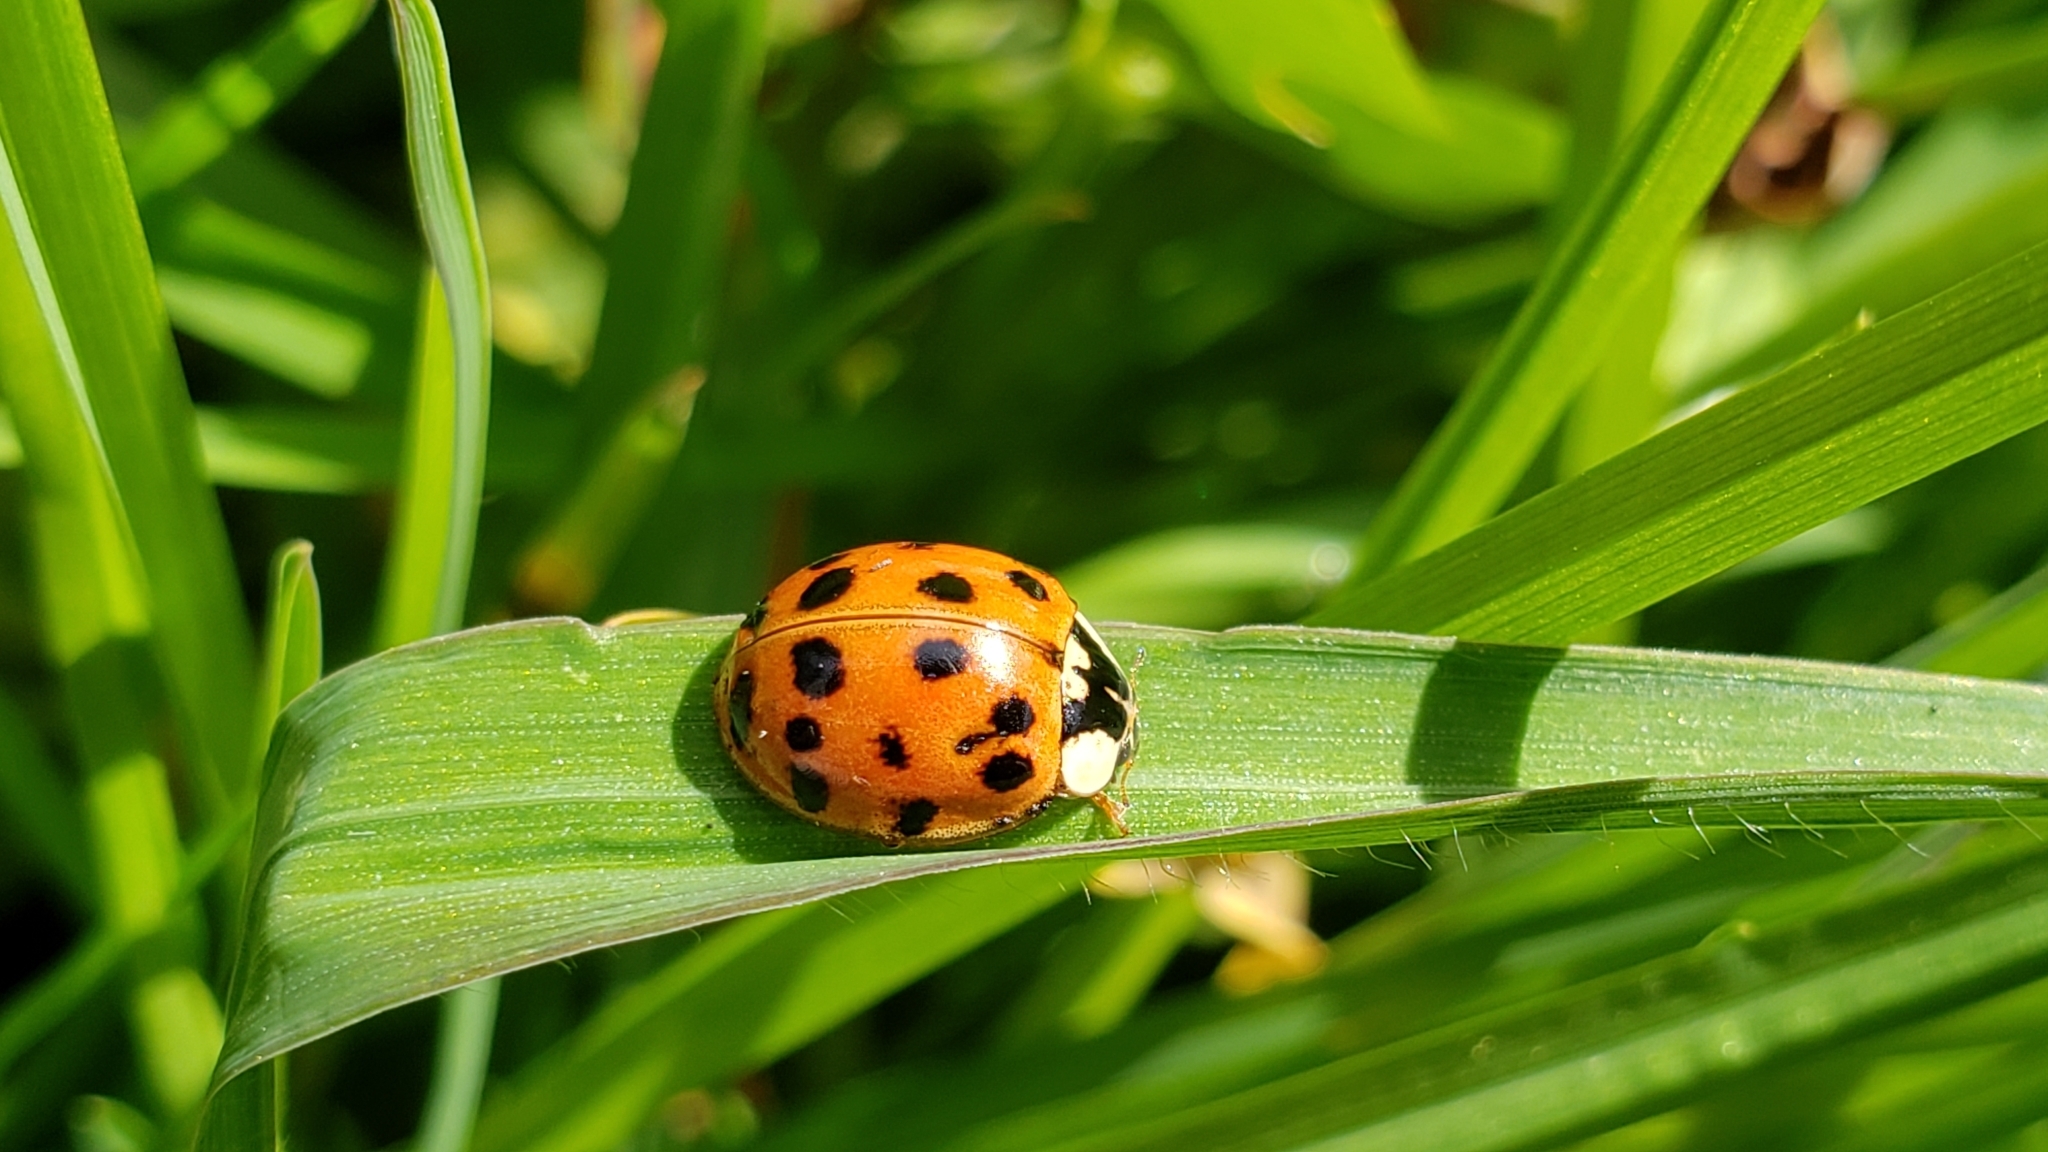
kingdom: Animalia
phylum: Arthropoda
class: Insecta
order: Coleoptera
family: Coccinellidae
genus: Harmonia
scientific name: Harmonia axyridis
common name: Harlequin ladybird
